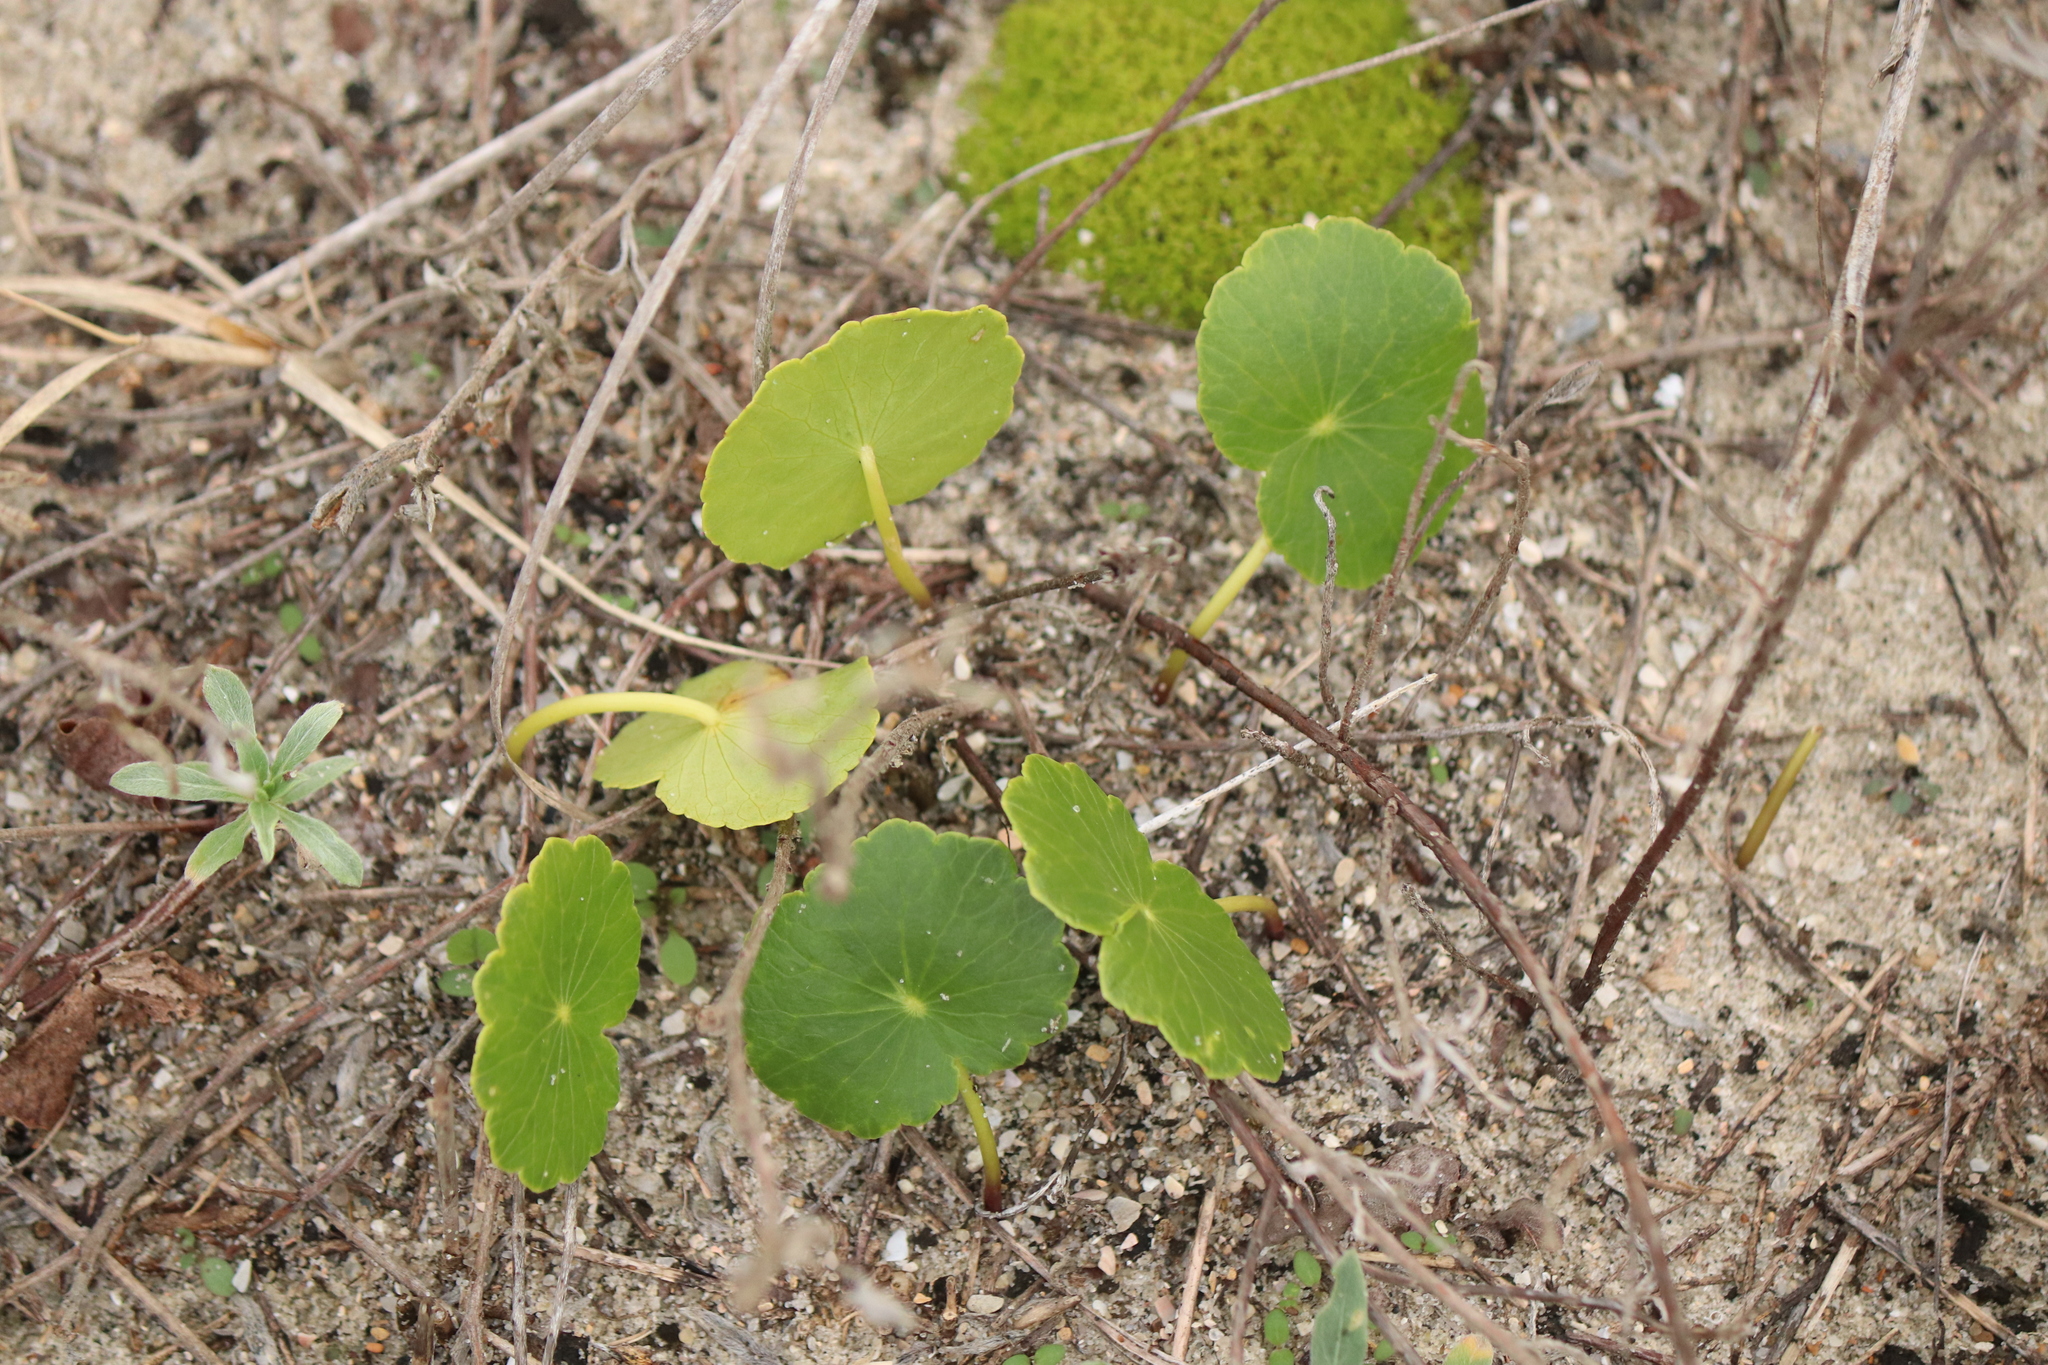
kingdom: Plantae
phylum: Tracheophyta
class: Magnoliopsida
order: Apiales
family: Araliaceae
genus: Hydrocotyle
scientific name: Hydrocotyle bonariensis
